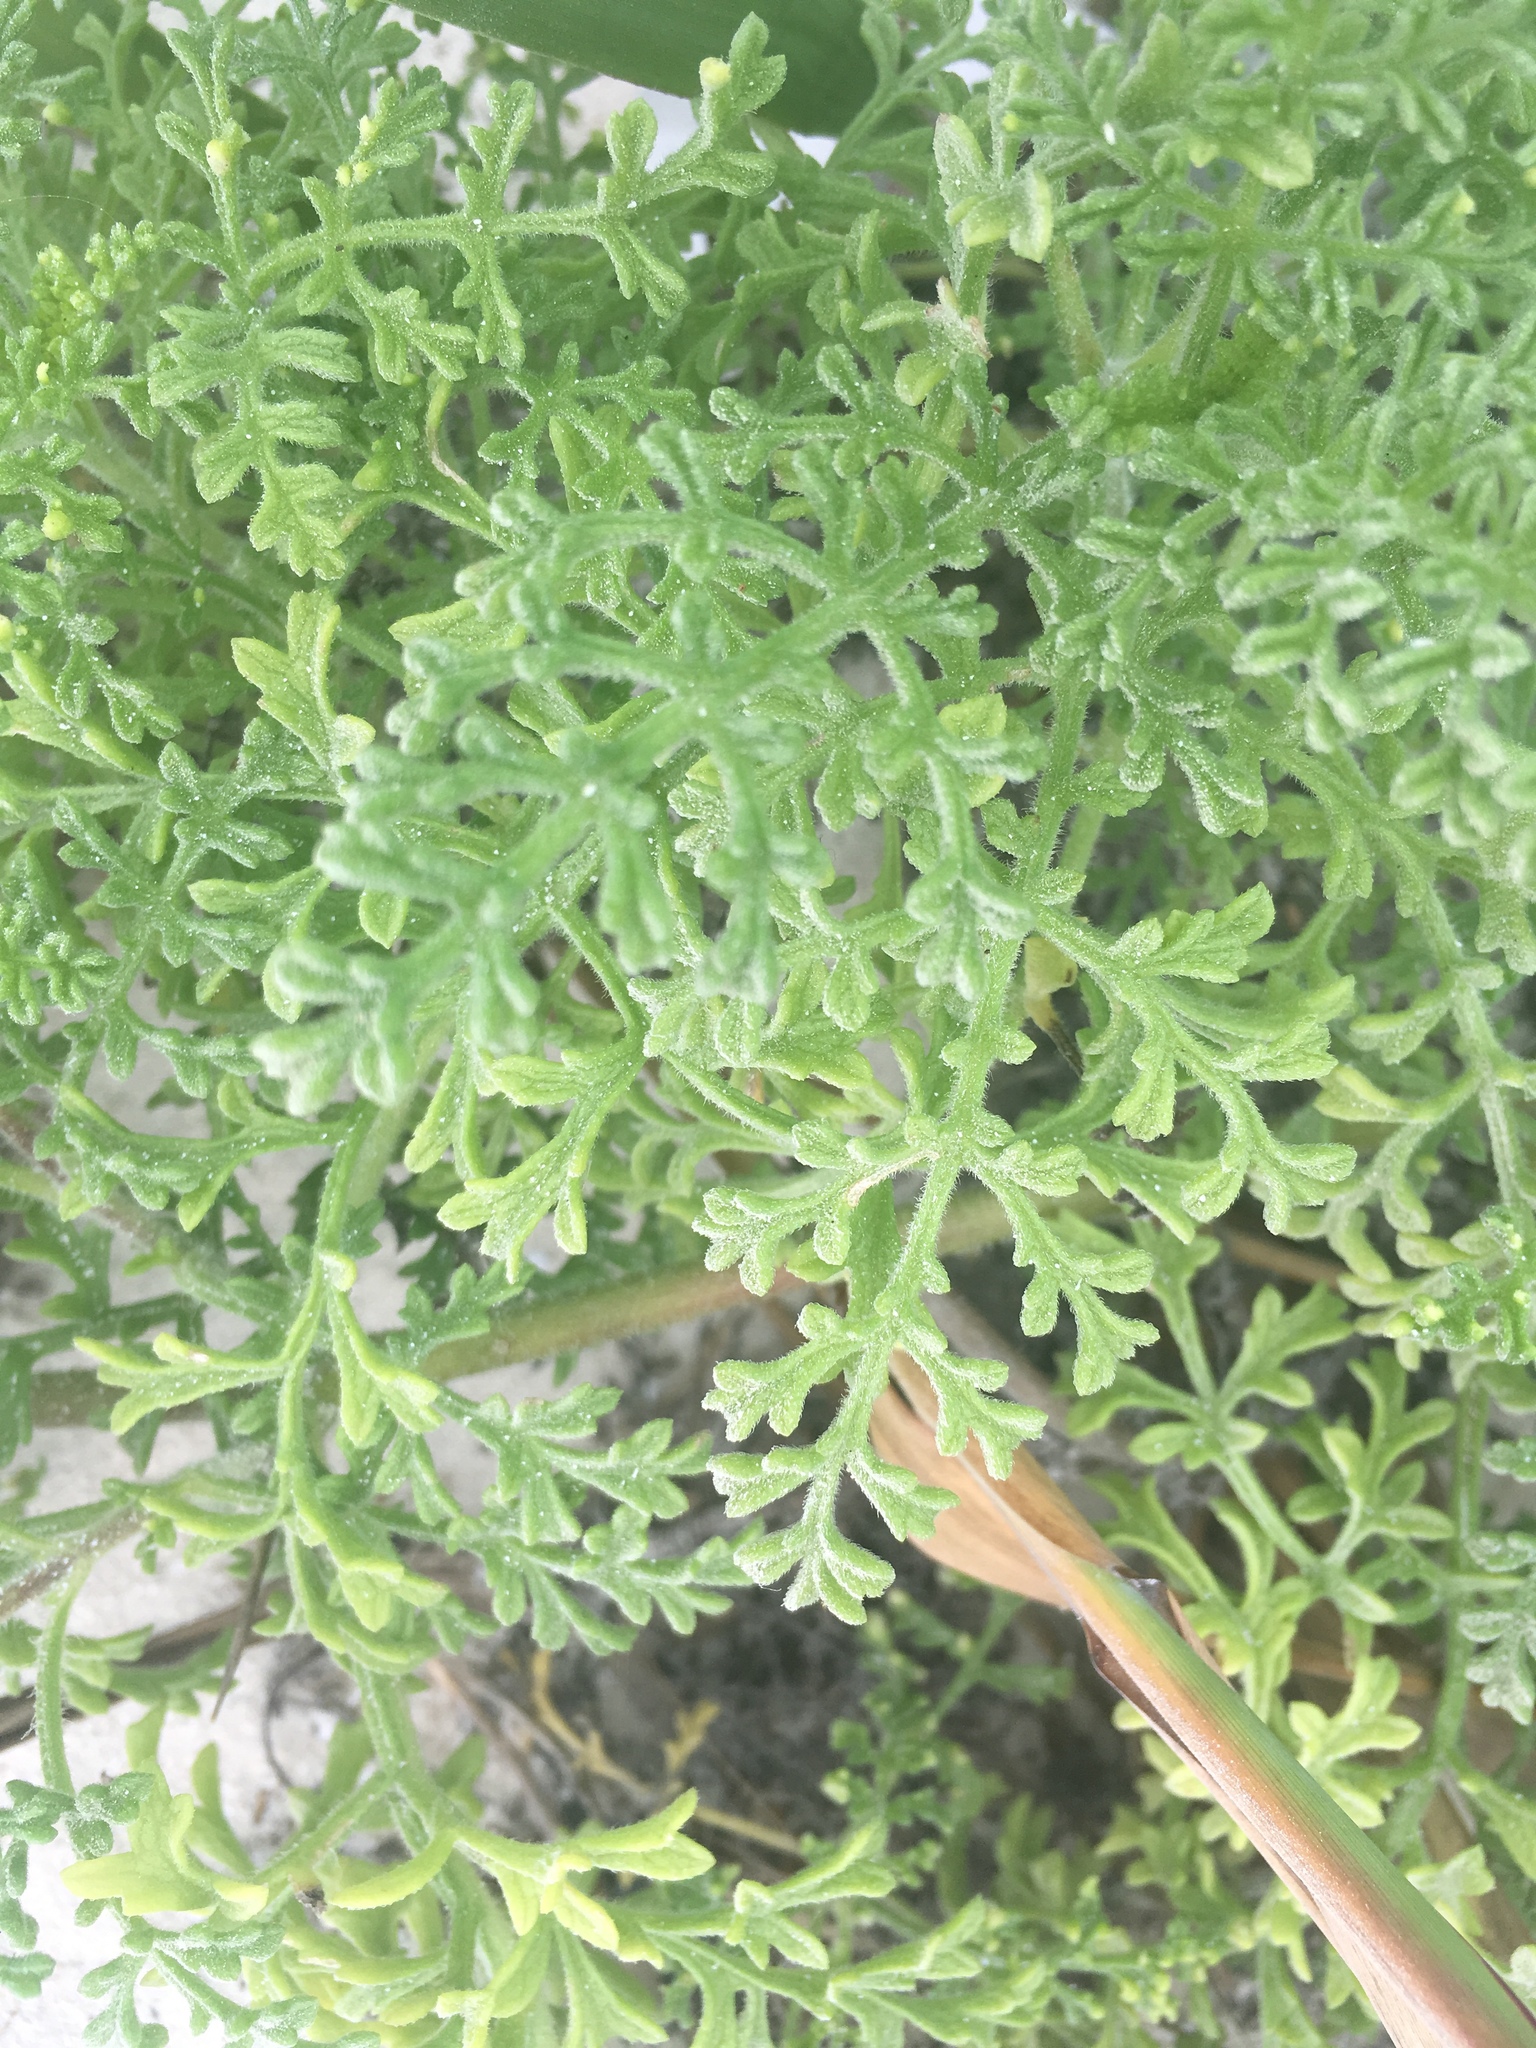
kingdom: Plantae
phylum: Tracheophyta
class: Magnoliopsida
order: Asterales
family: Asteraceae
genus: Ambrosia
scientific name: Ambrosia hispida
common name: Coastal ragweed
